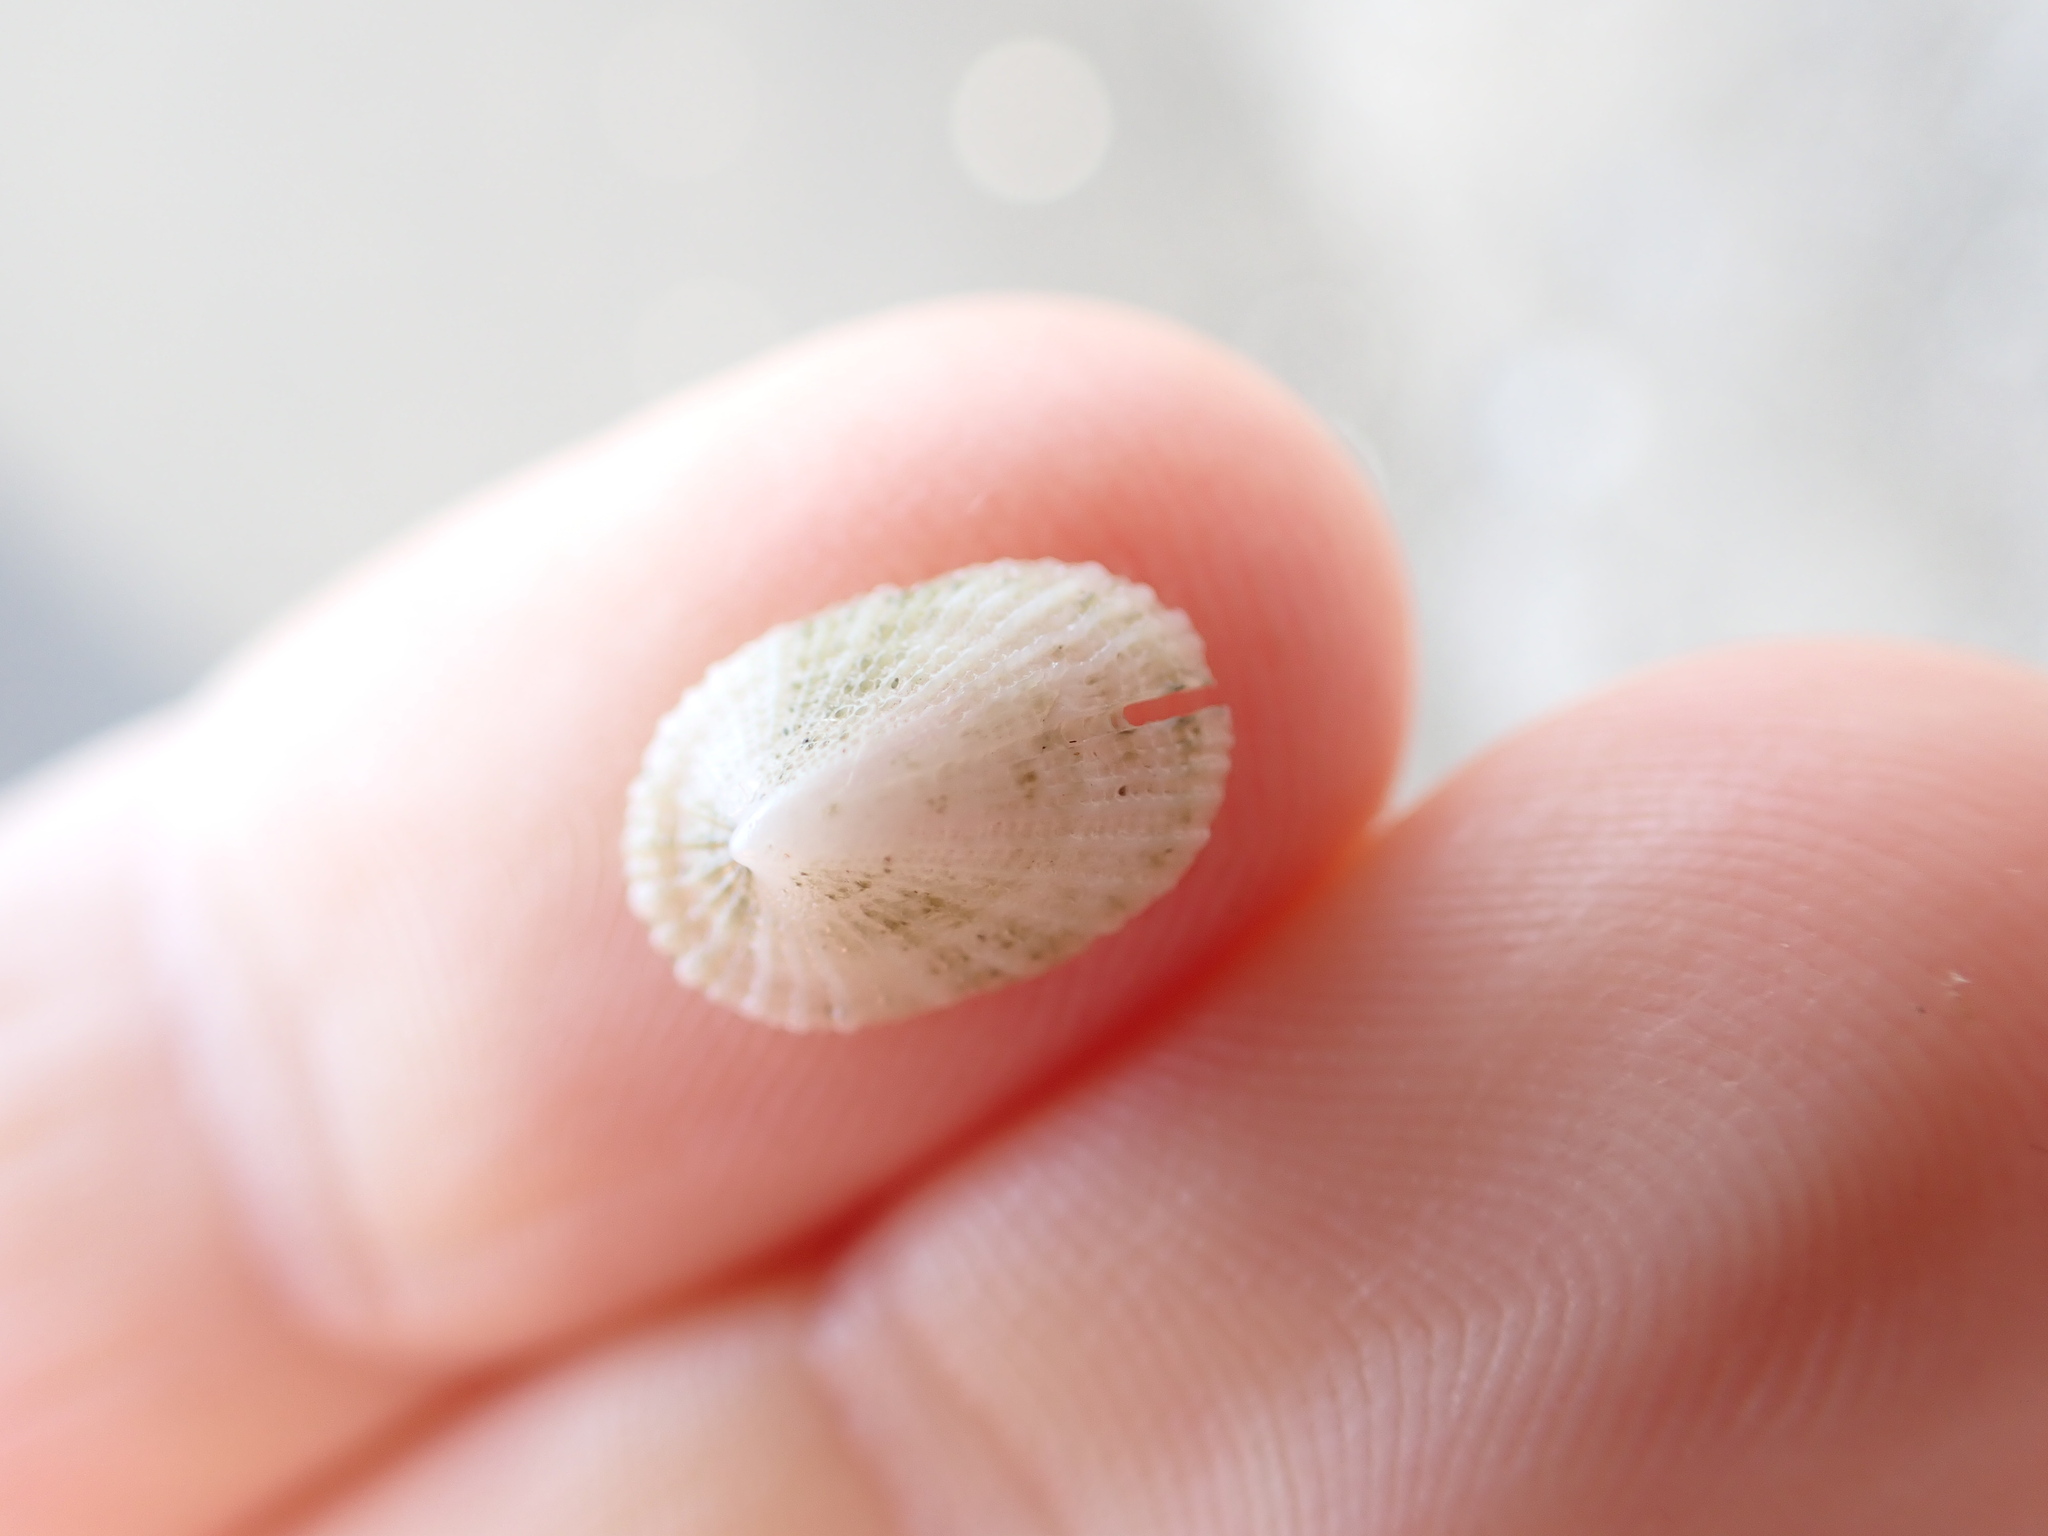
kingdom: Animalia
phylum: Mollusca
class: Gastropoda
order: Lepetellida
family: Fissurellidae
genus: Emarginula
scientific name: Emarginula striatula
